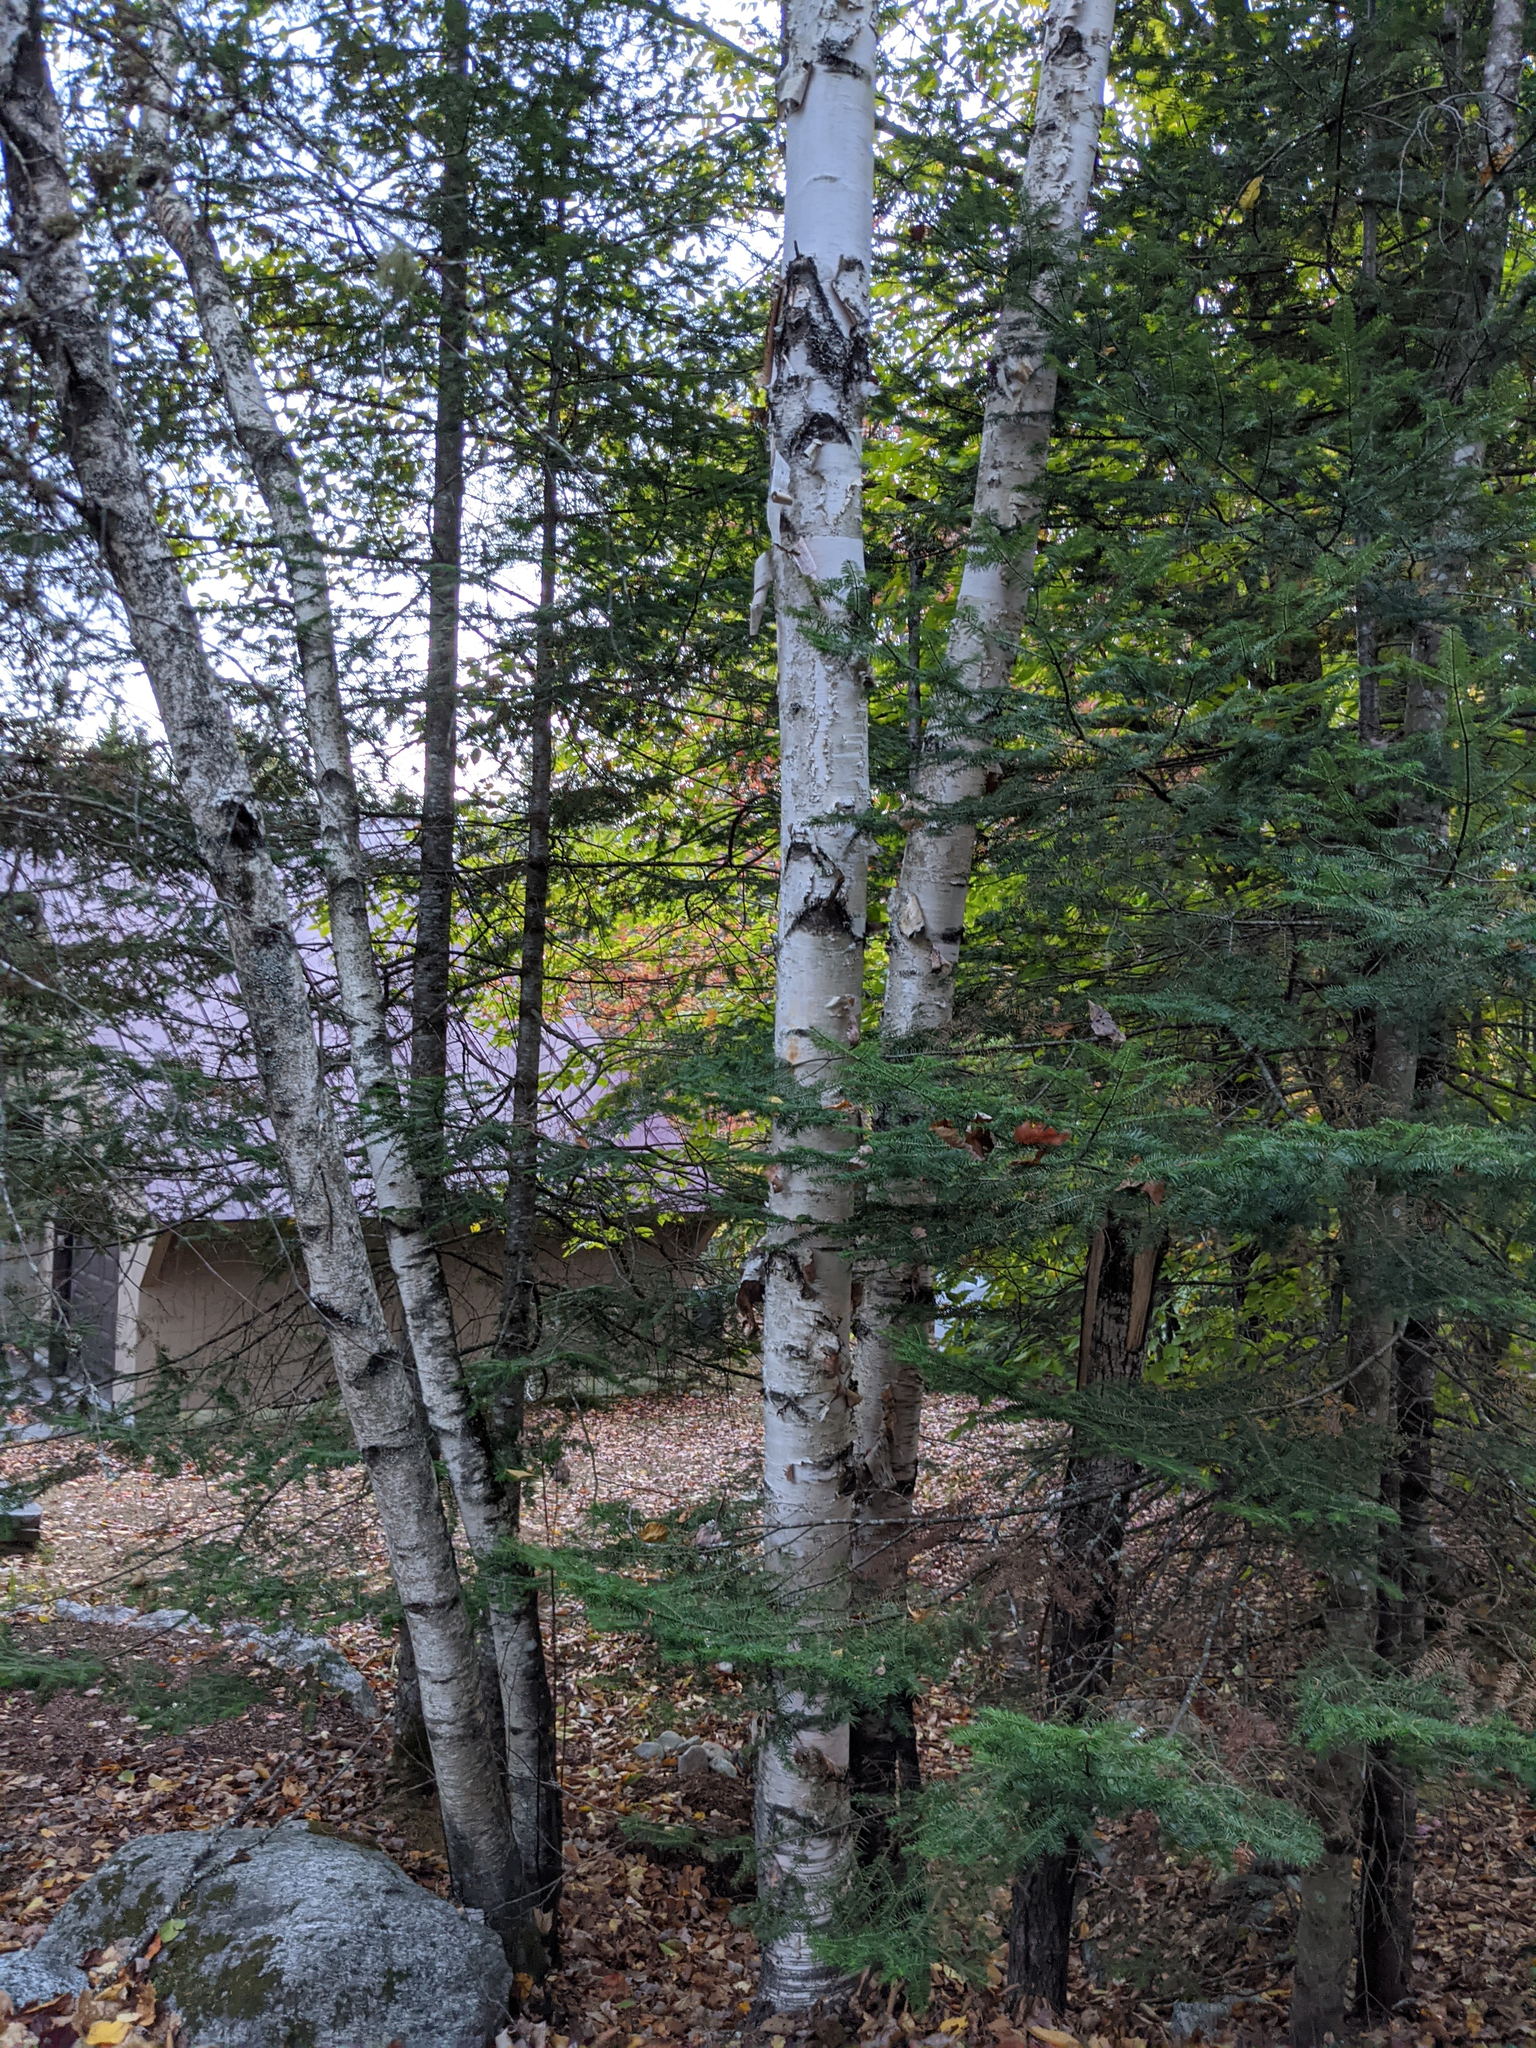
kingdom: Plantae
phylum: Tracheophyta
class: Magnoliopsida
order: Fagales
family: Betulaceae
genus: Betula
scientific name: Betula papyrifera
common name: Paper birch
